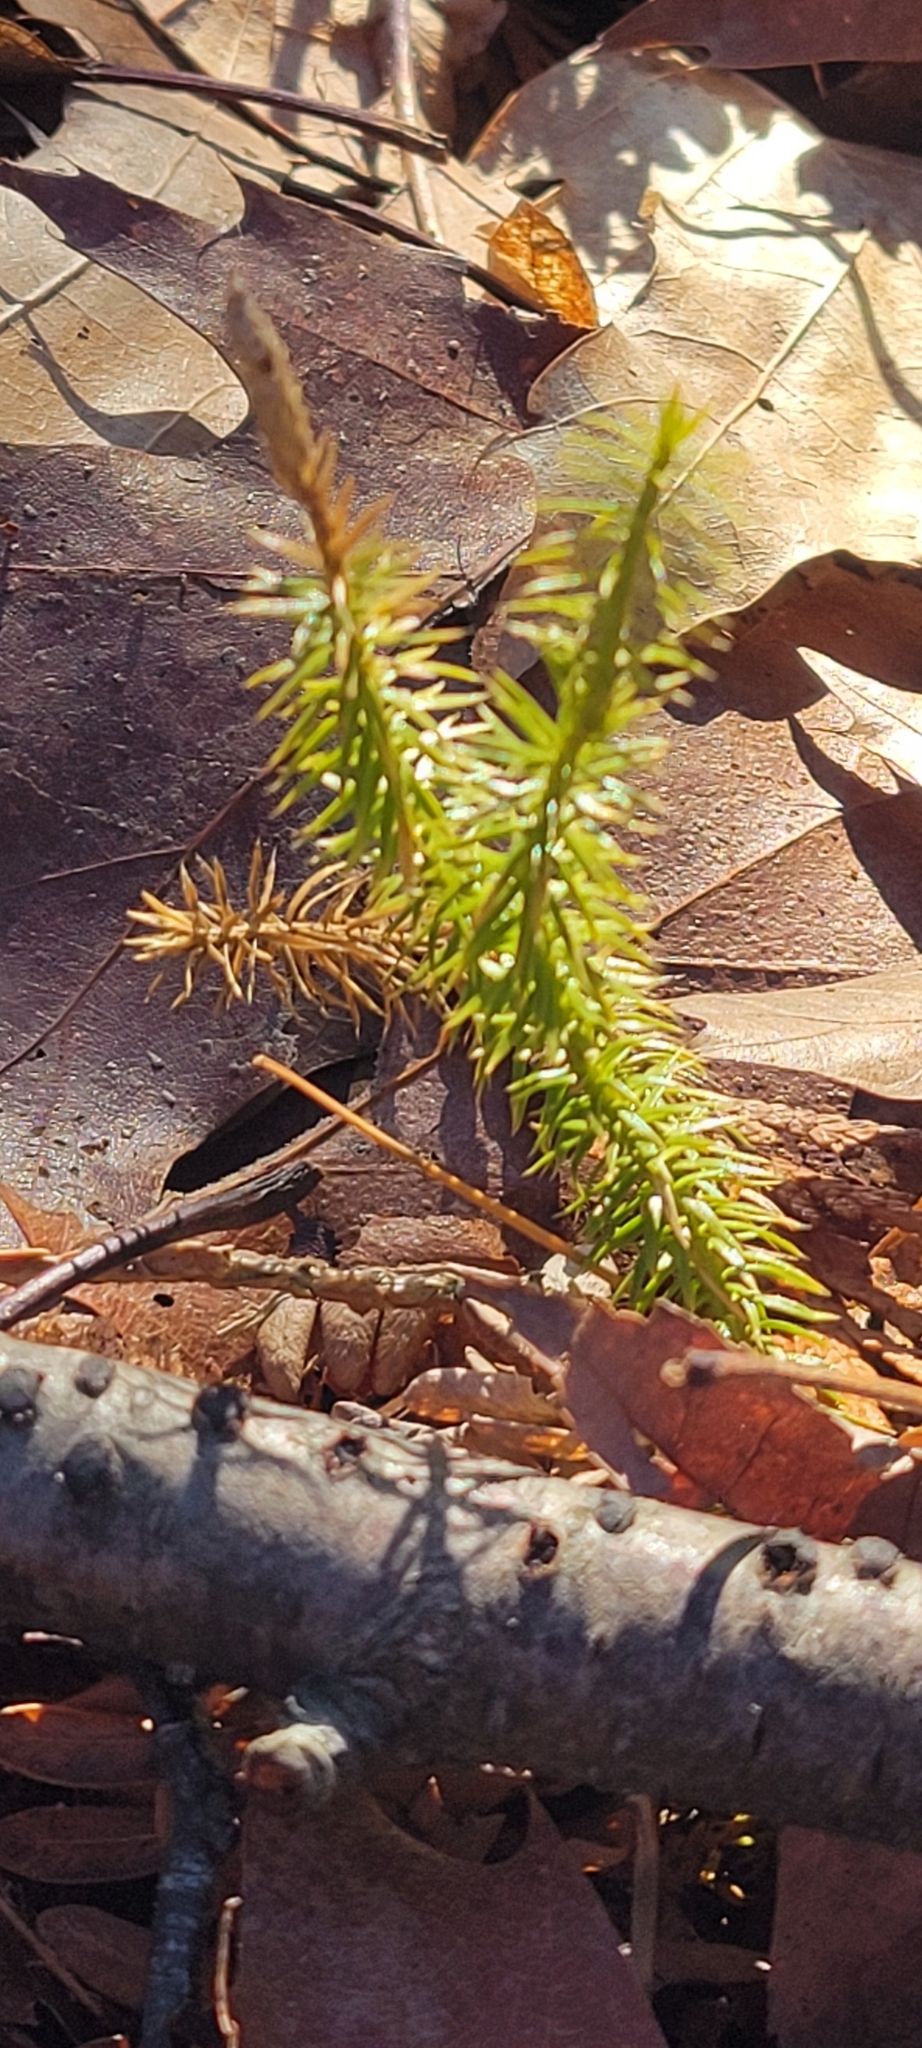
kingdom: Plantae
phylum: Tracheophyta
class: Lycopodiopsida
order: Lycopodiales
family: Lycopodiaceae
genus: Spinulum
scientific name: Spinulum annotinum
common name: Interrupted club-moss
